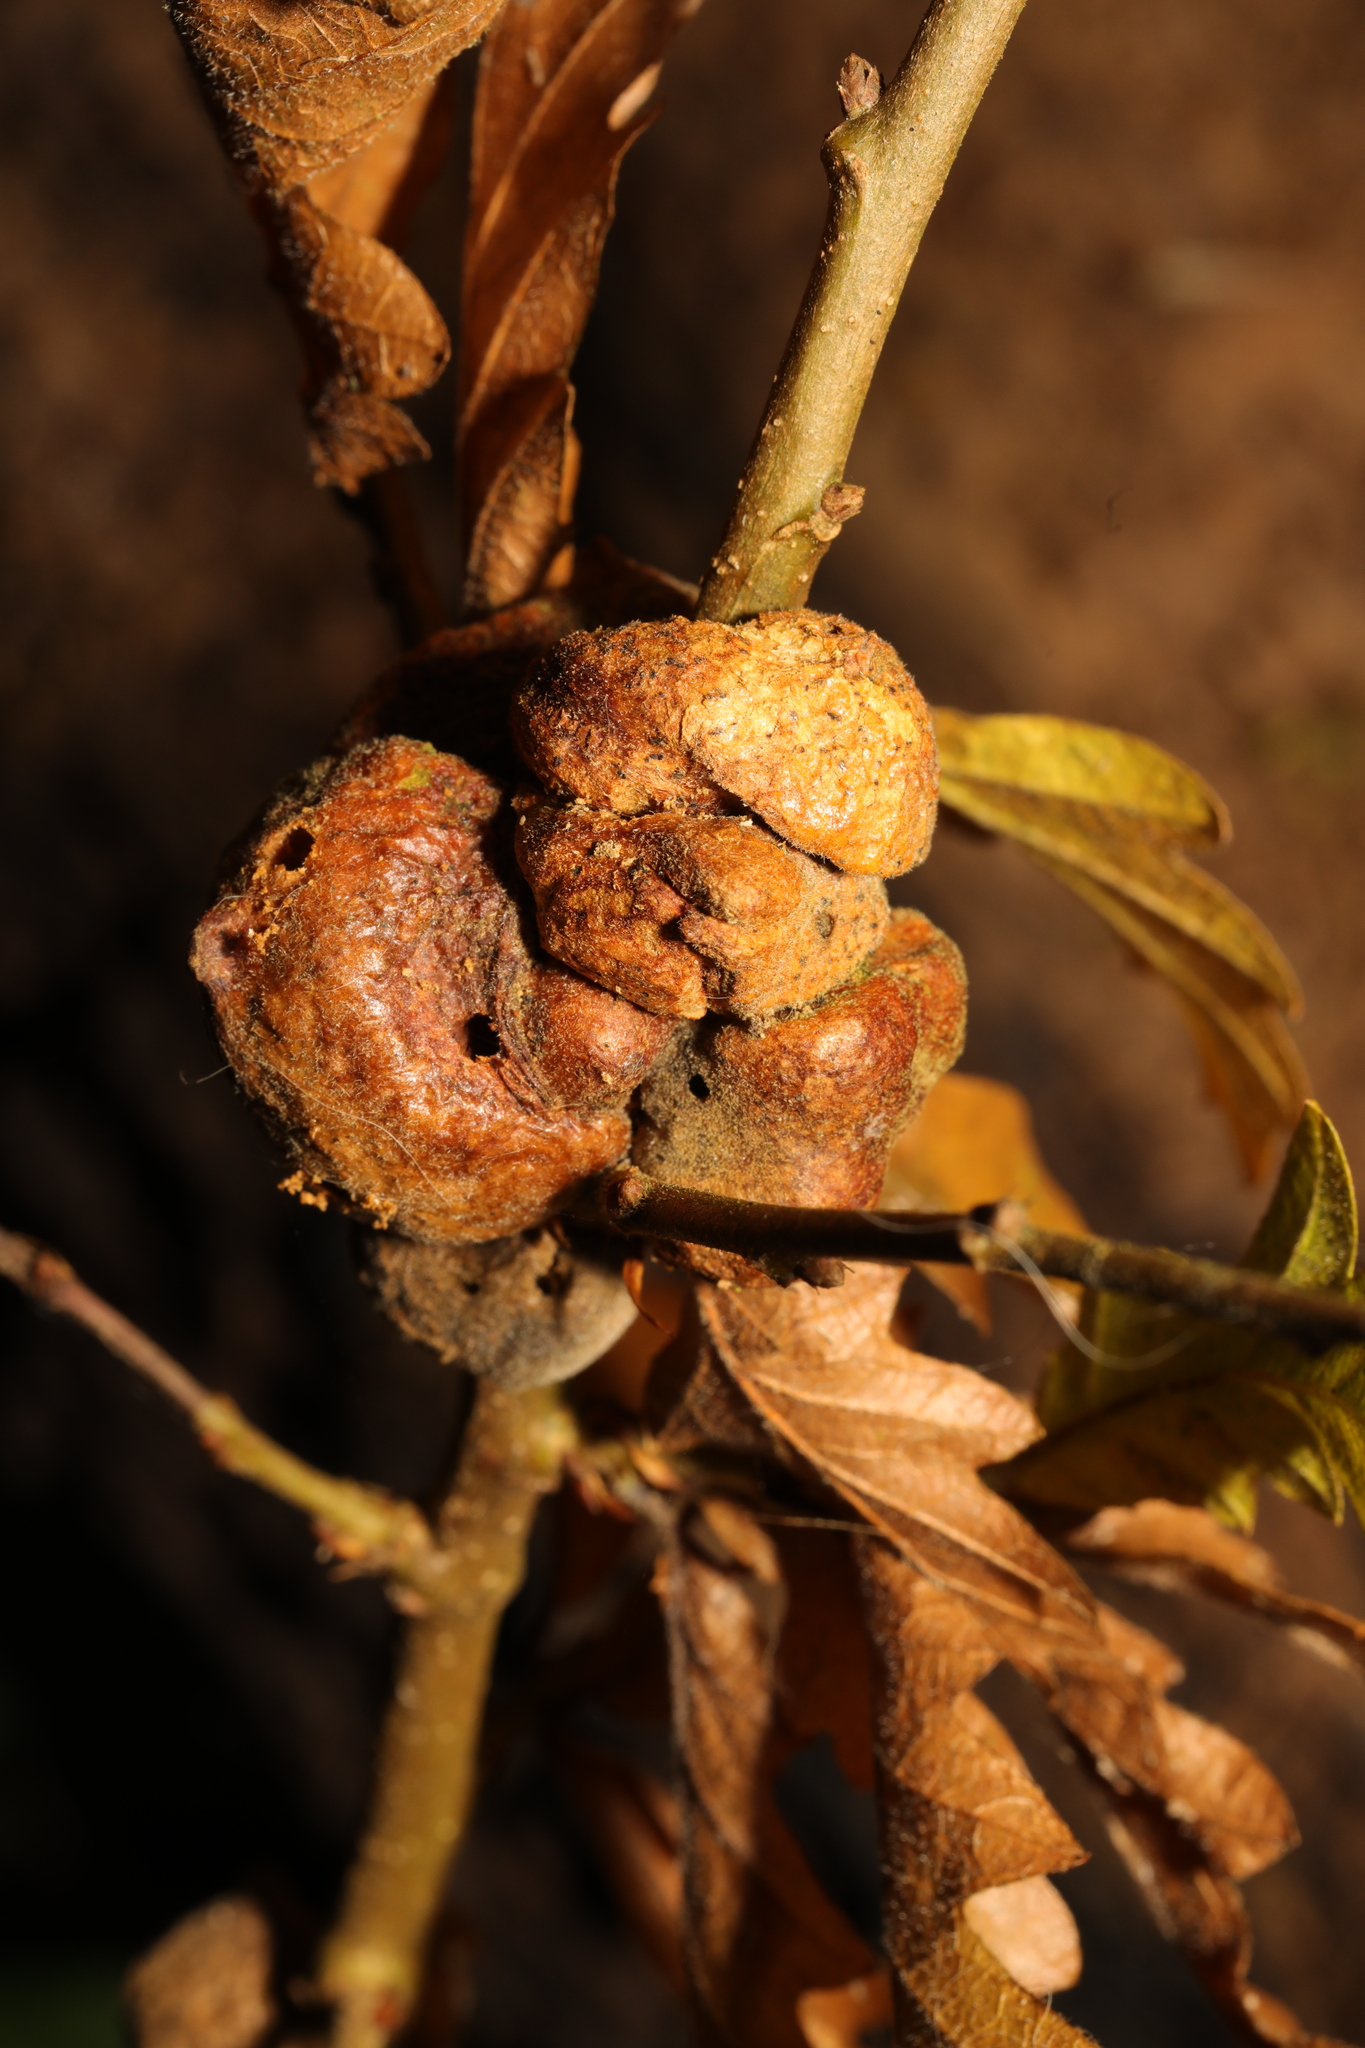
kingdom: Animalia
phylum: Arthropoda
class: Insecta
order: Hymenoptera
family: Cynipidae
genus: Aphelonyx
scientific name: Aphelonyx cerricola
